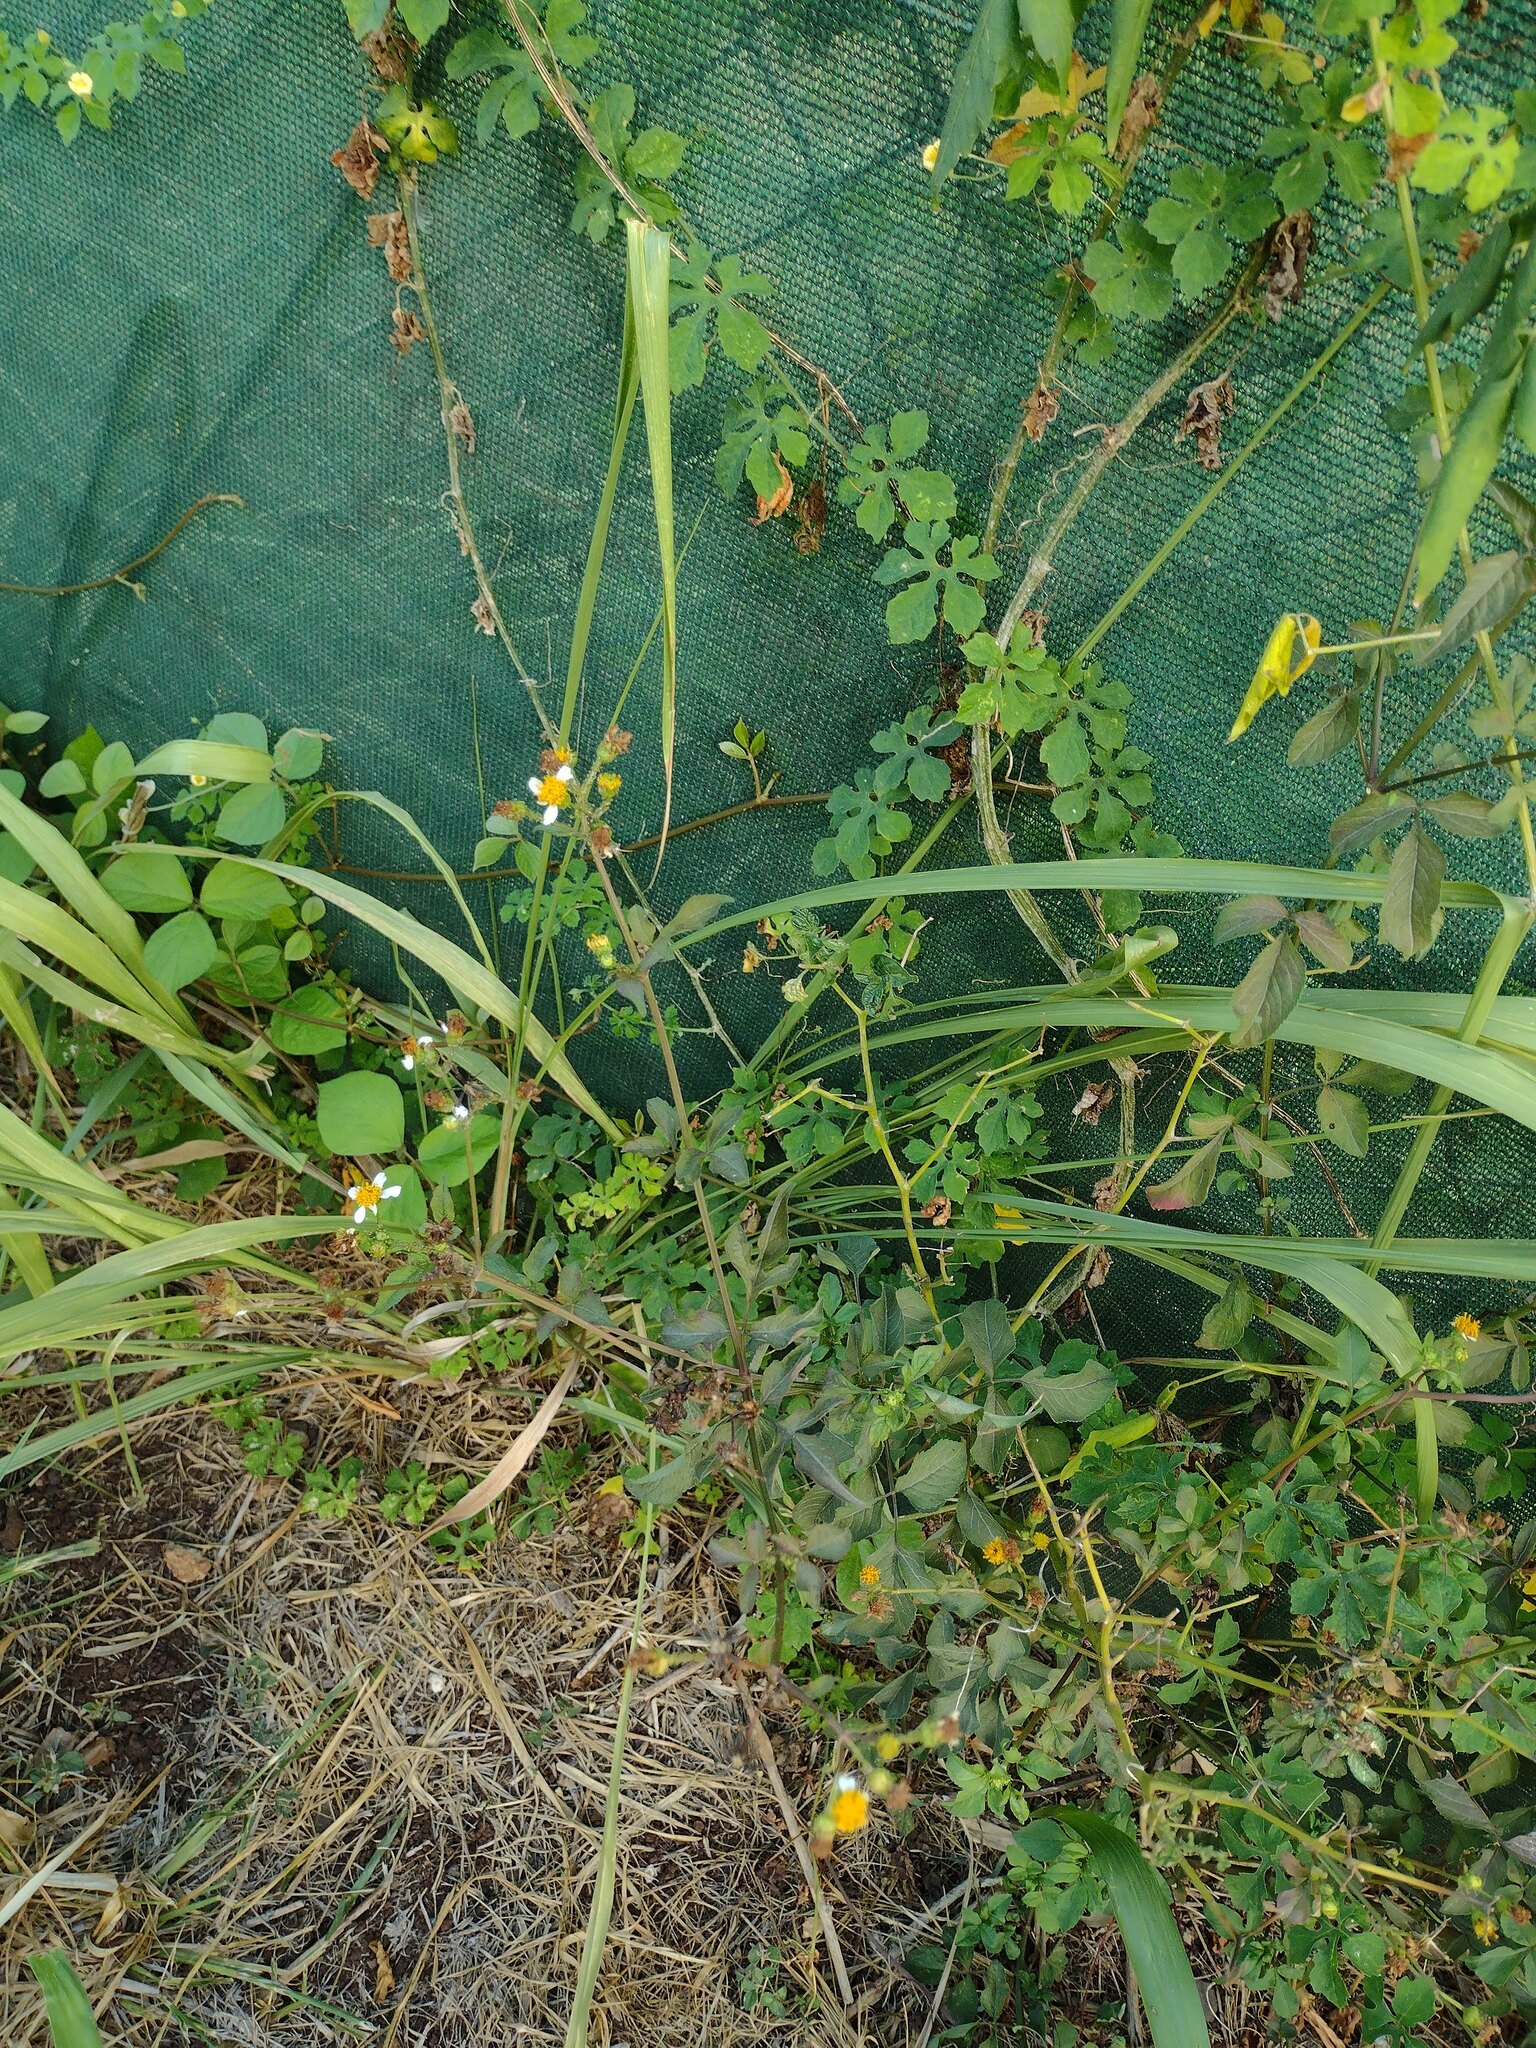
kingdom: Plantae
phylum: Tracheophyta
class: Magnoliopsida
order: Asterales
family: Asteraceae
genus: Bidens
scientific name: Bidens alba
